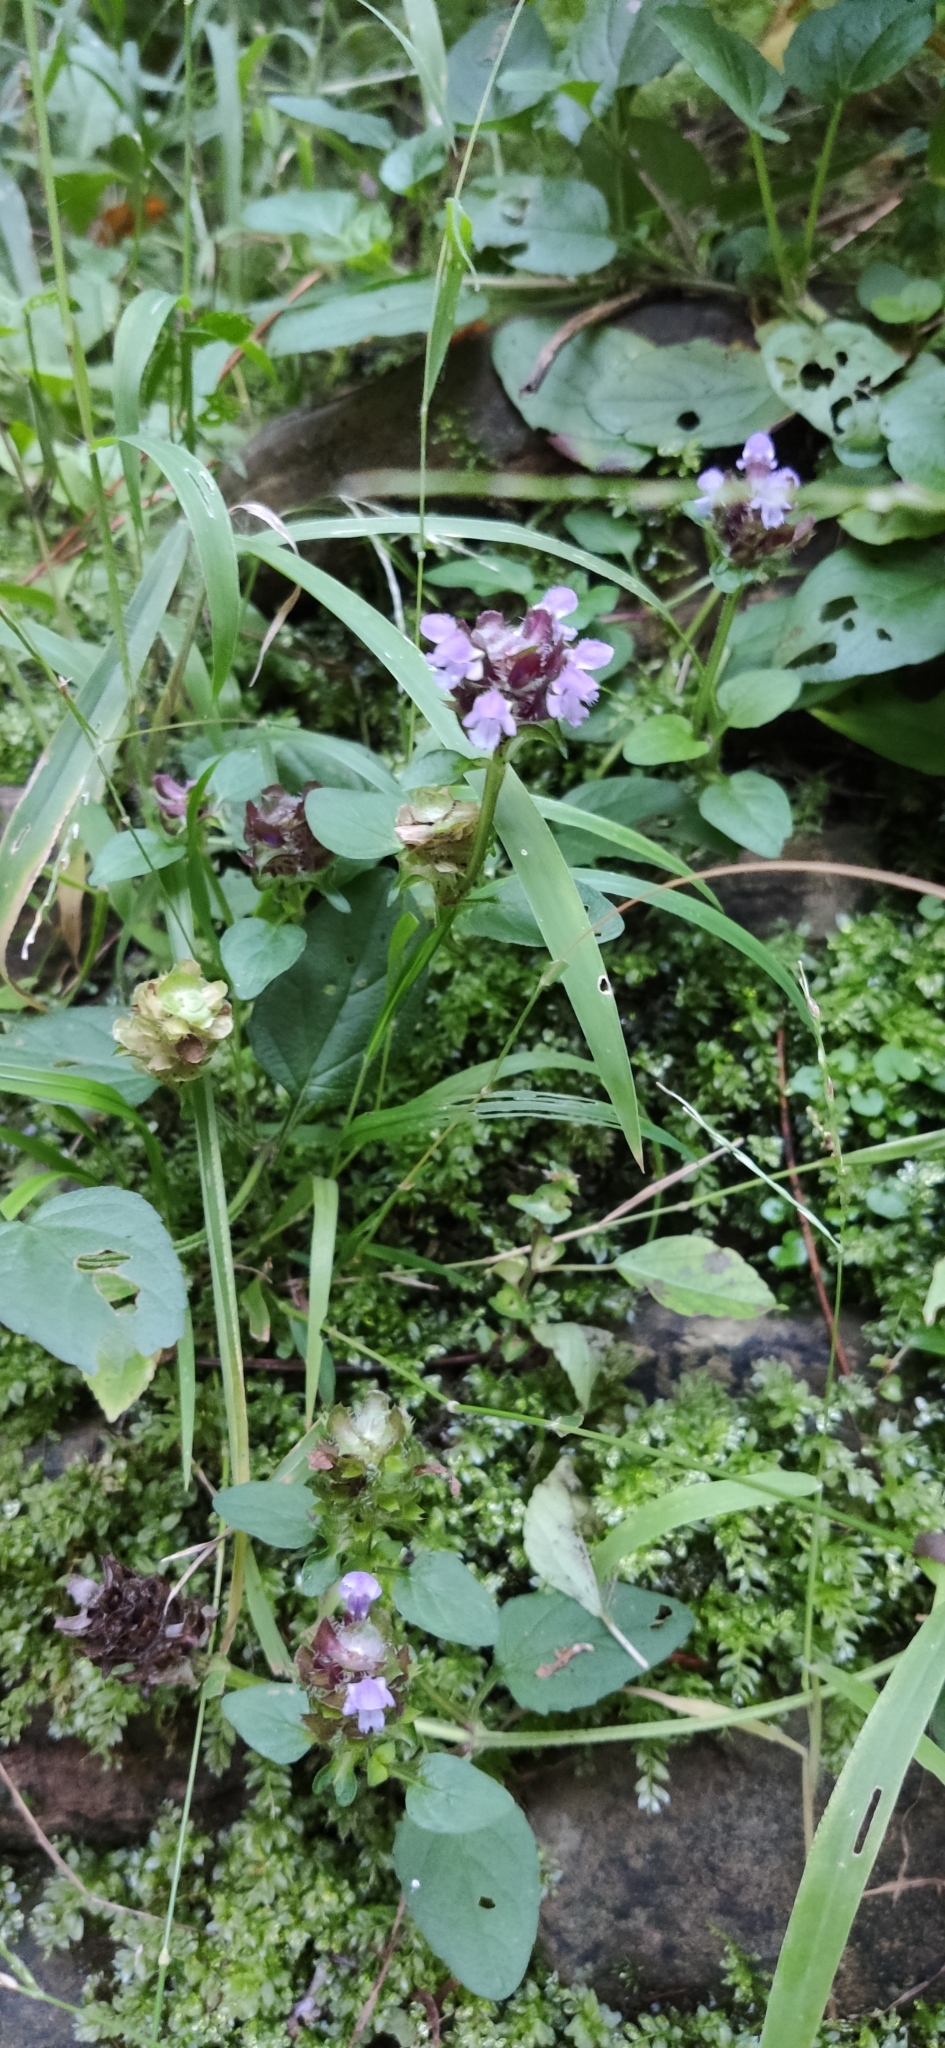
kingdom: Plantae
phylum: Tracheophyta
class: Magnoliopsida
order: Lamiales
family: Lamiaceae
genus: Prunella
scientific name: Prunella vulgaris
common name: Heal-all
